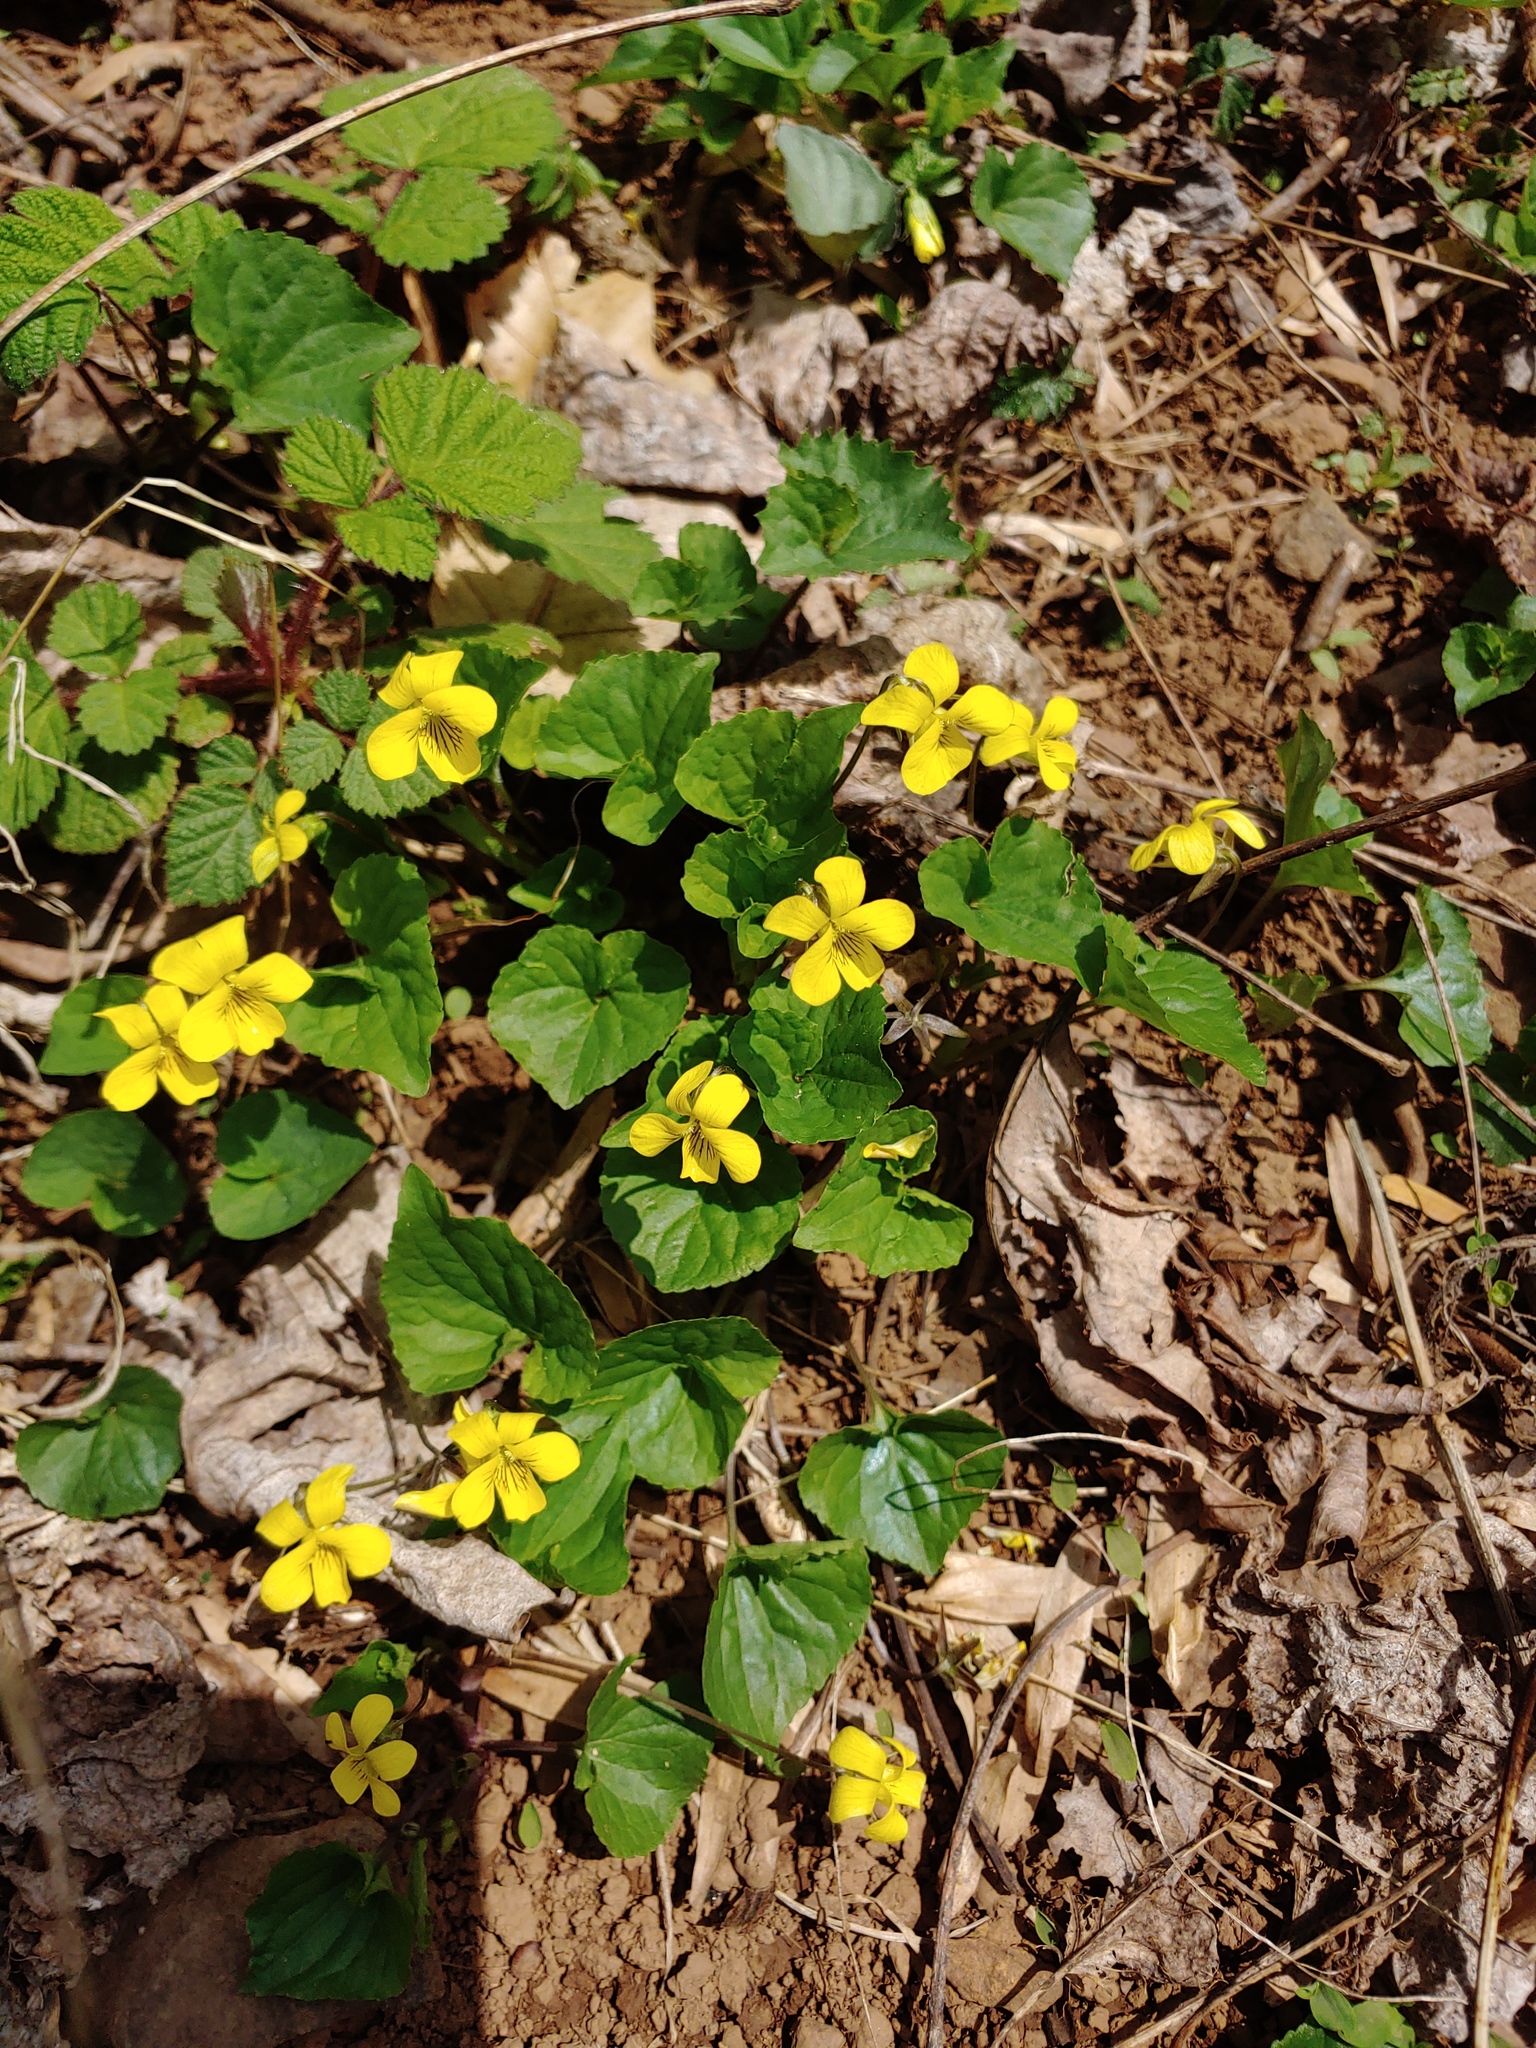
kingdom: Plantae
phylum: Tracheophyta
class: Magnoliopsida
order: Malpighiales
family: Violaceae
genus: Viola
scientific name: Viola eriocarpa
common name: Smooth yellow violet
